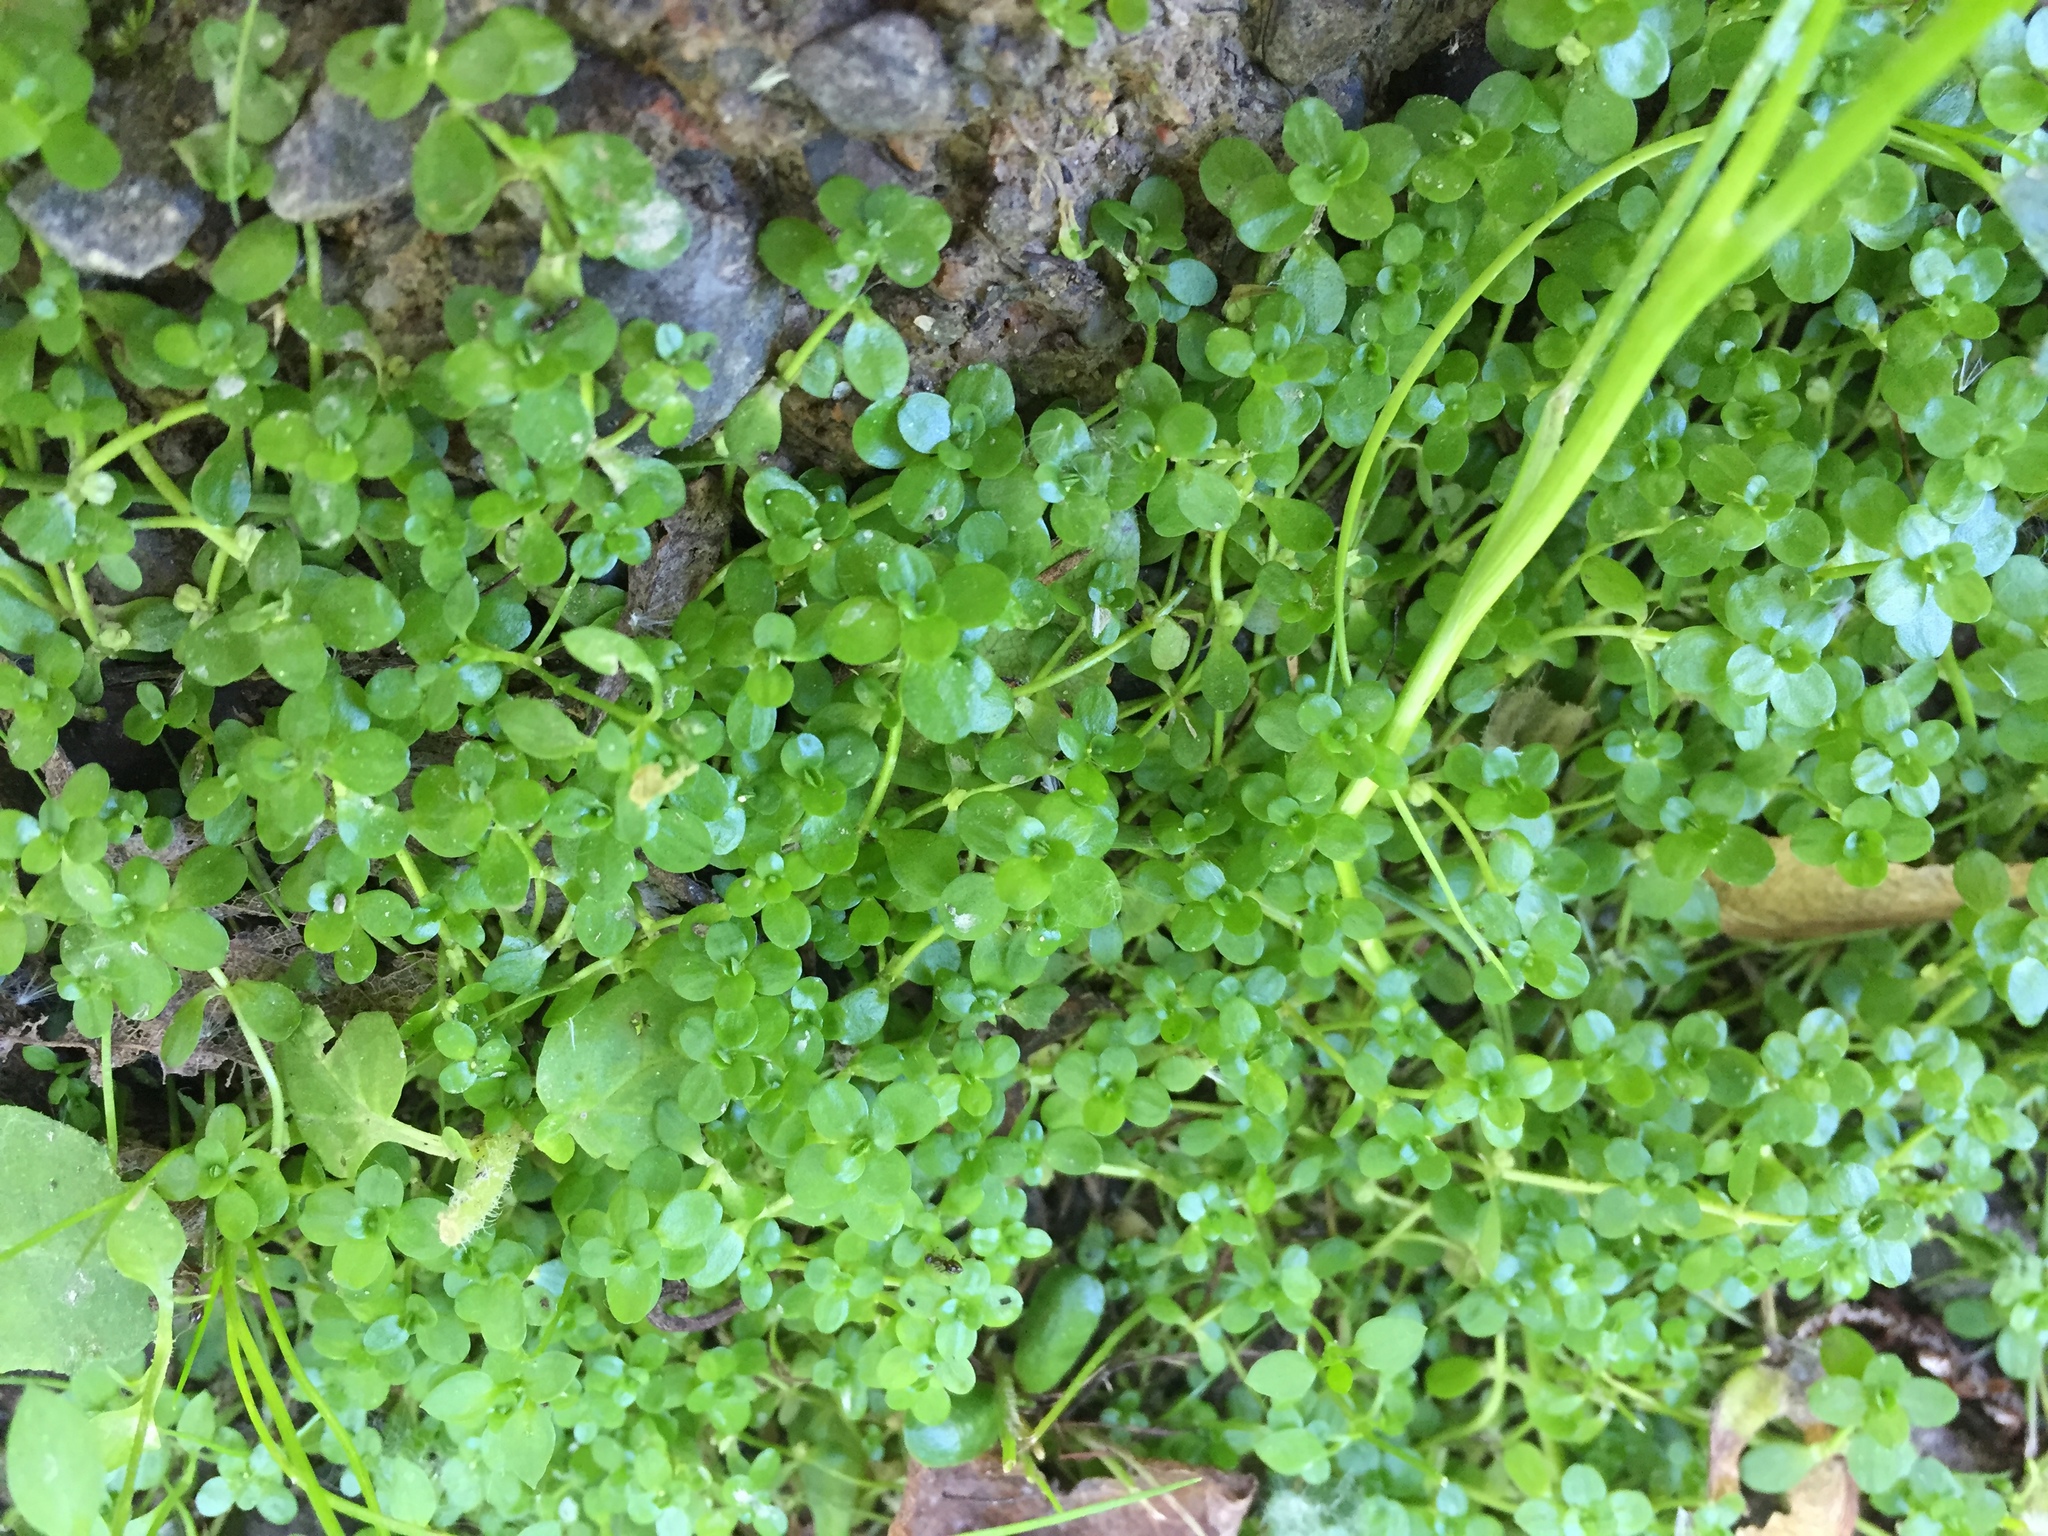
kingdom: Plantae
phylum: Tracheophyta
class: Magnoliopsida
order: Lamiales
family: Plantaginaceae
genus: Callitriche
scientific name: Callitriche stagnalis
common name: Common water-starwort
